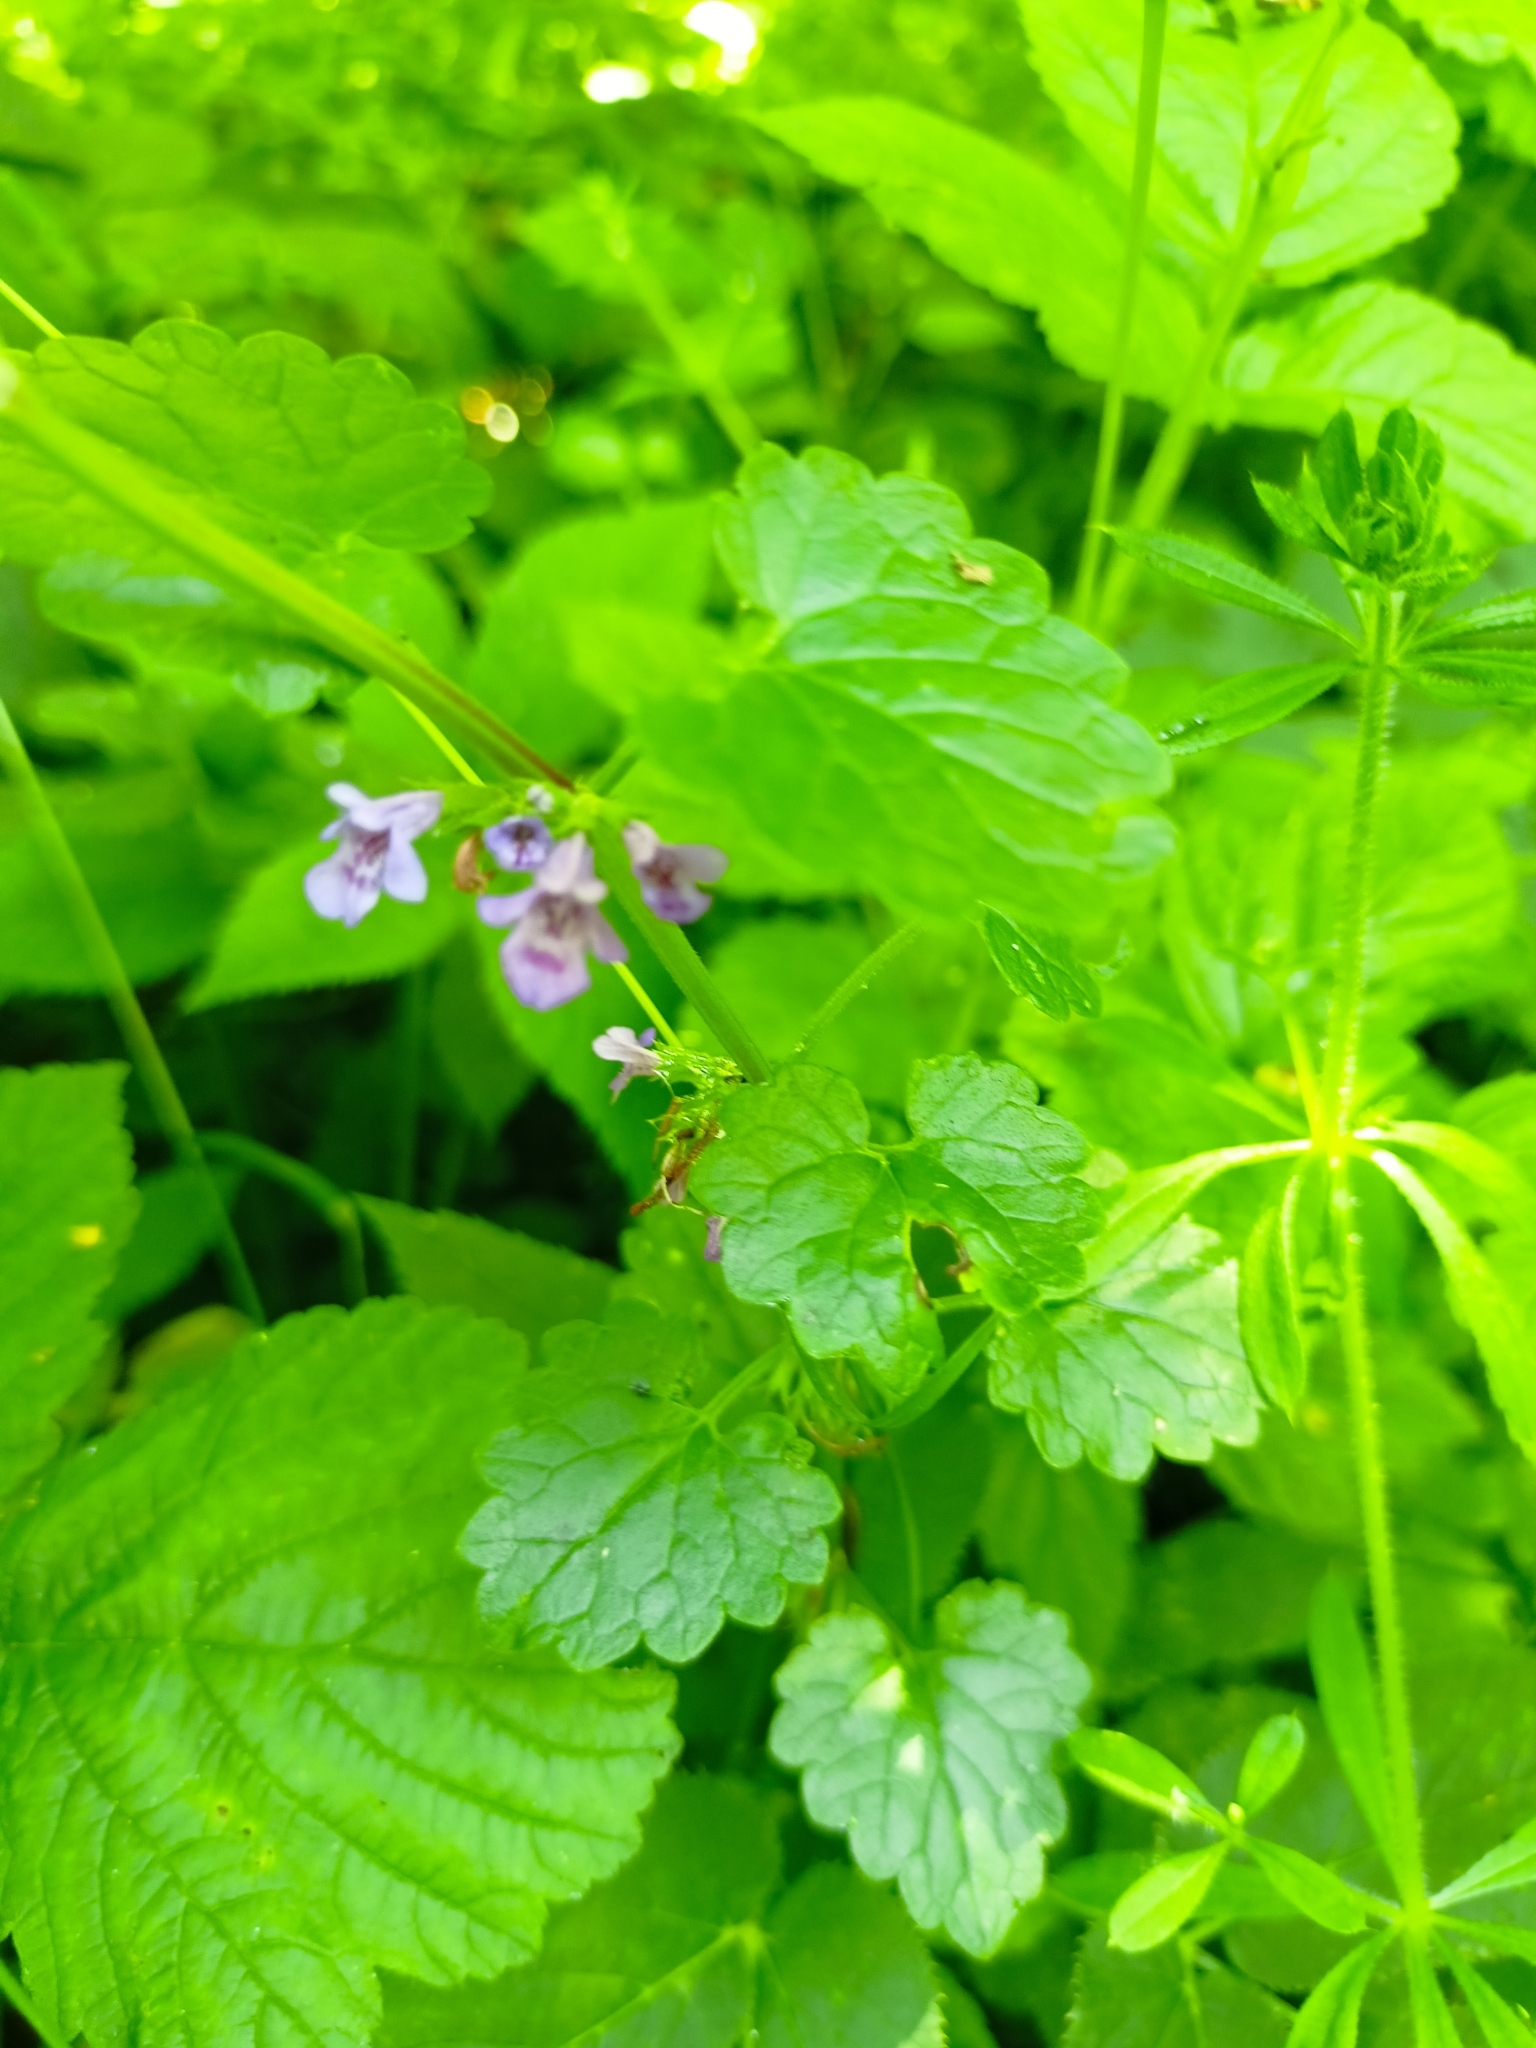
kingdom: Plantae
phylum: Tracheophyta
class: Magnoliopsida
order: Lamiales
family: Lamiaceae
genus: Glechoma
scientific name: Glechoma hederacea
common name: Ground ivy
